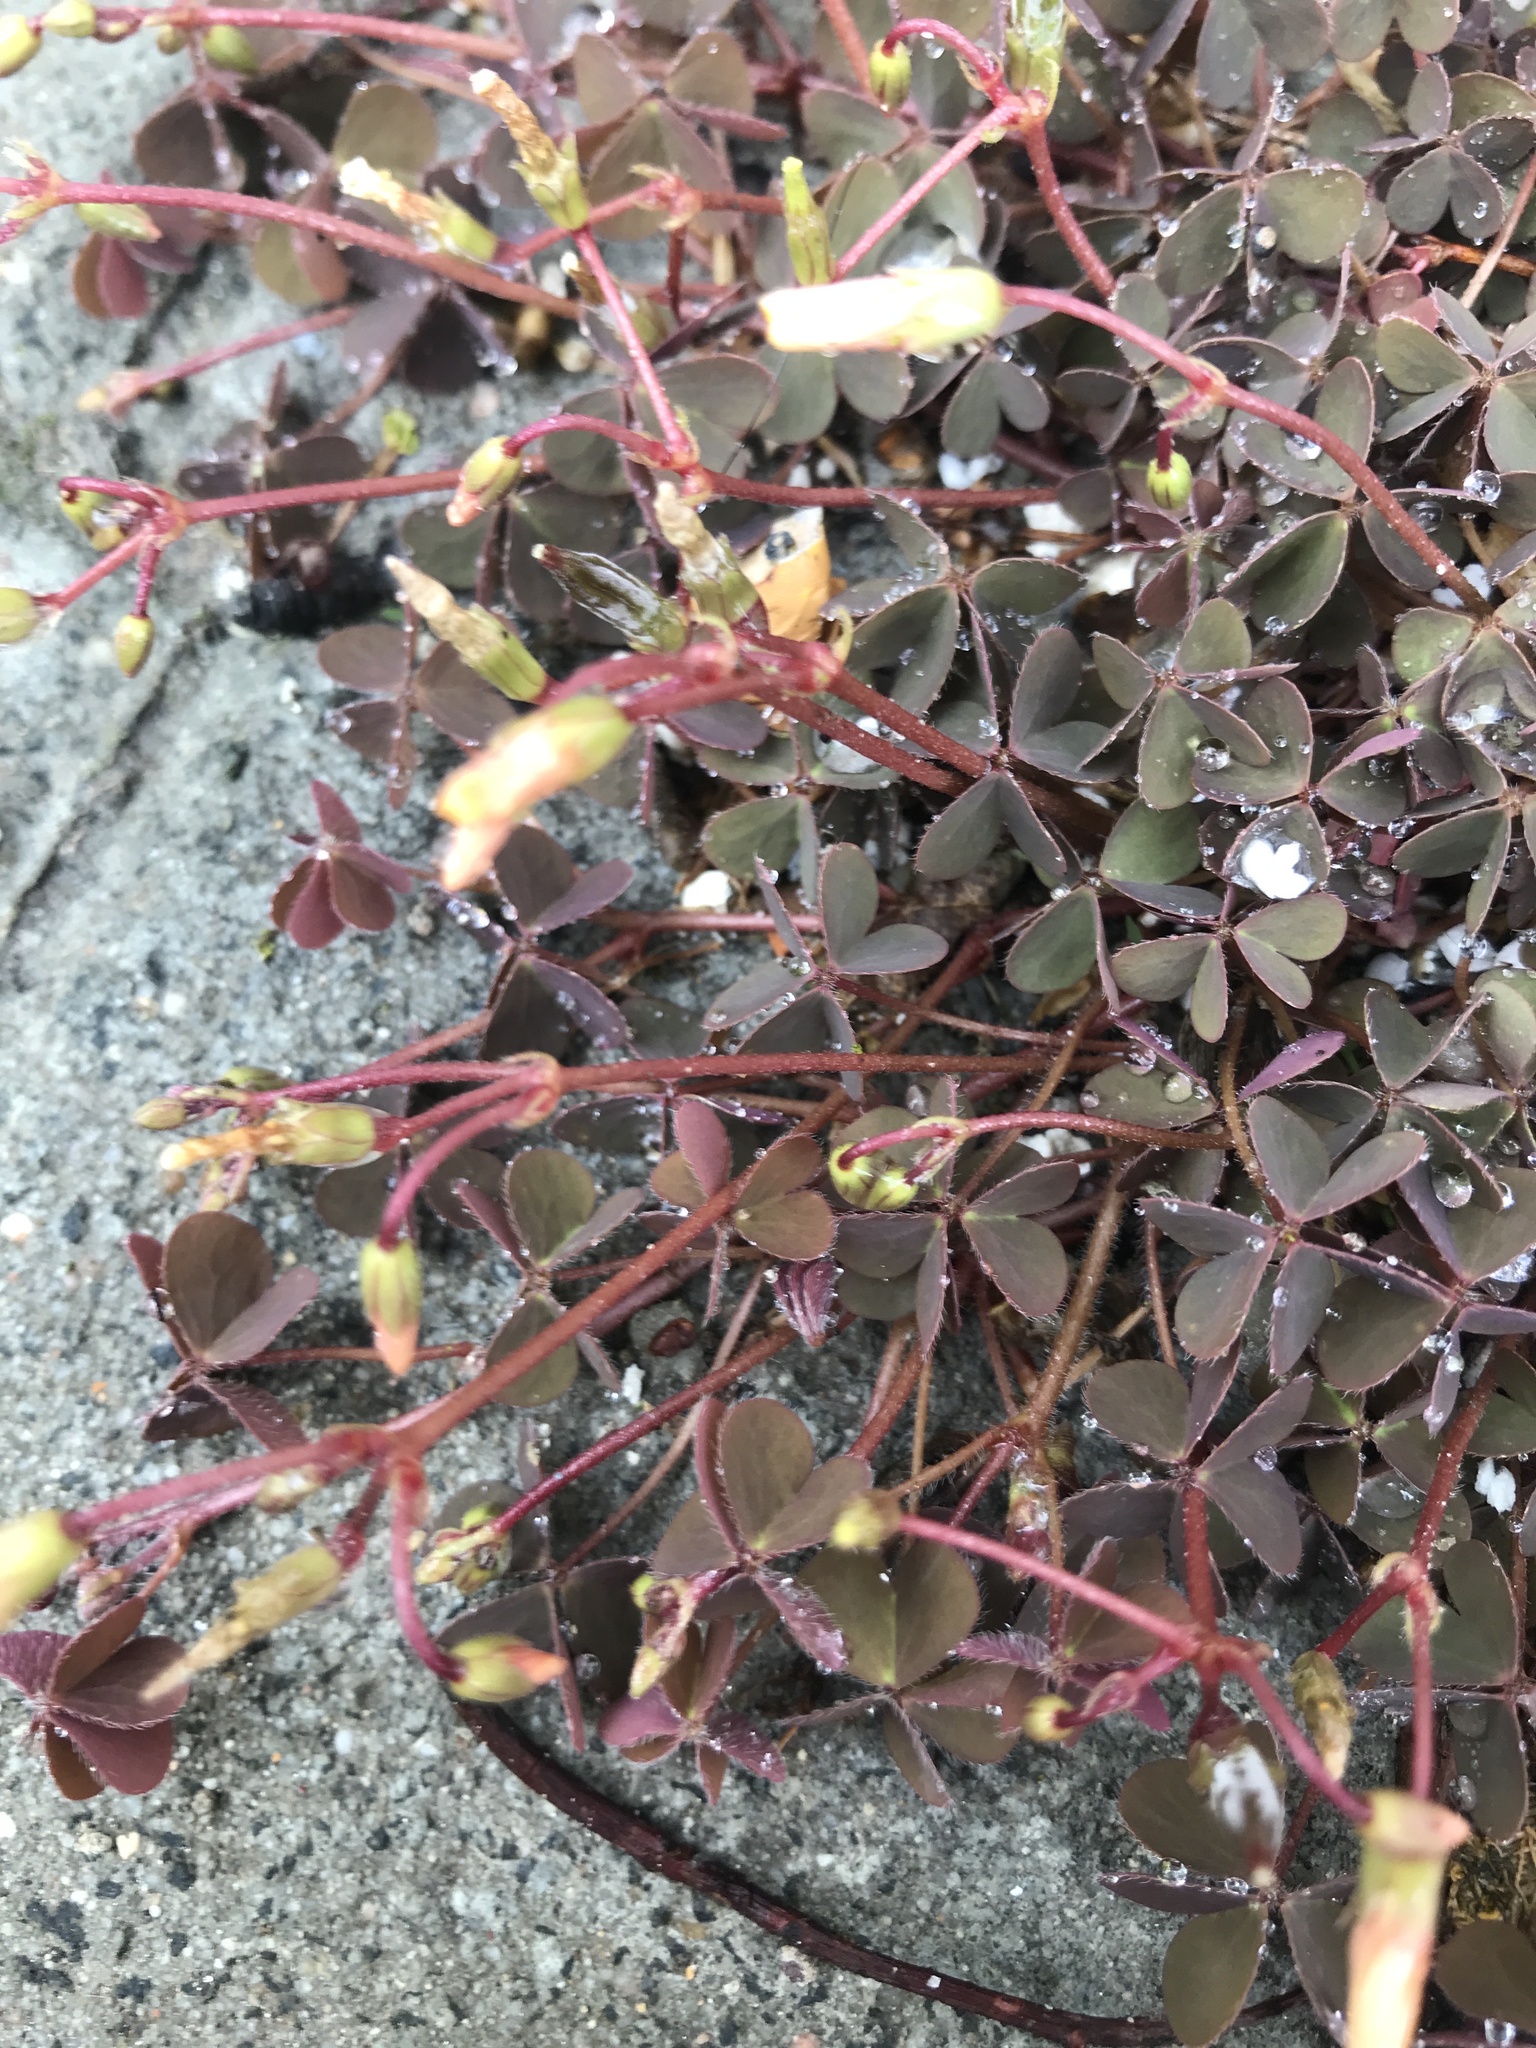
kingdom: Plantae
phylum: Tracheophyta
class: Magnoliopsida
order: Oxalidales
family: Oxalidaceae
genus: Oxalis
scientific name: Oxalis corniculata
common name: Procumbent yellow-sorrel
